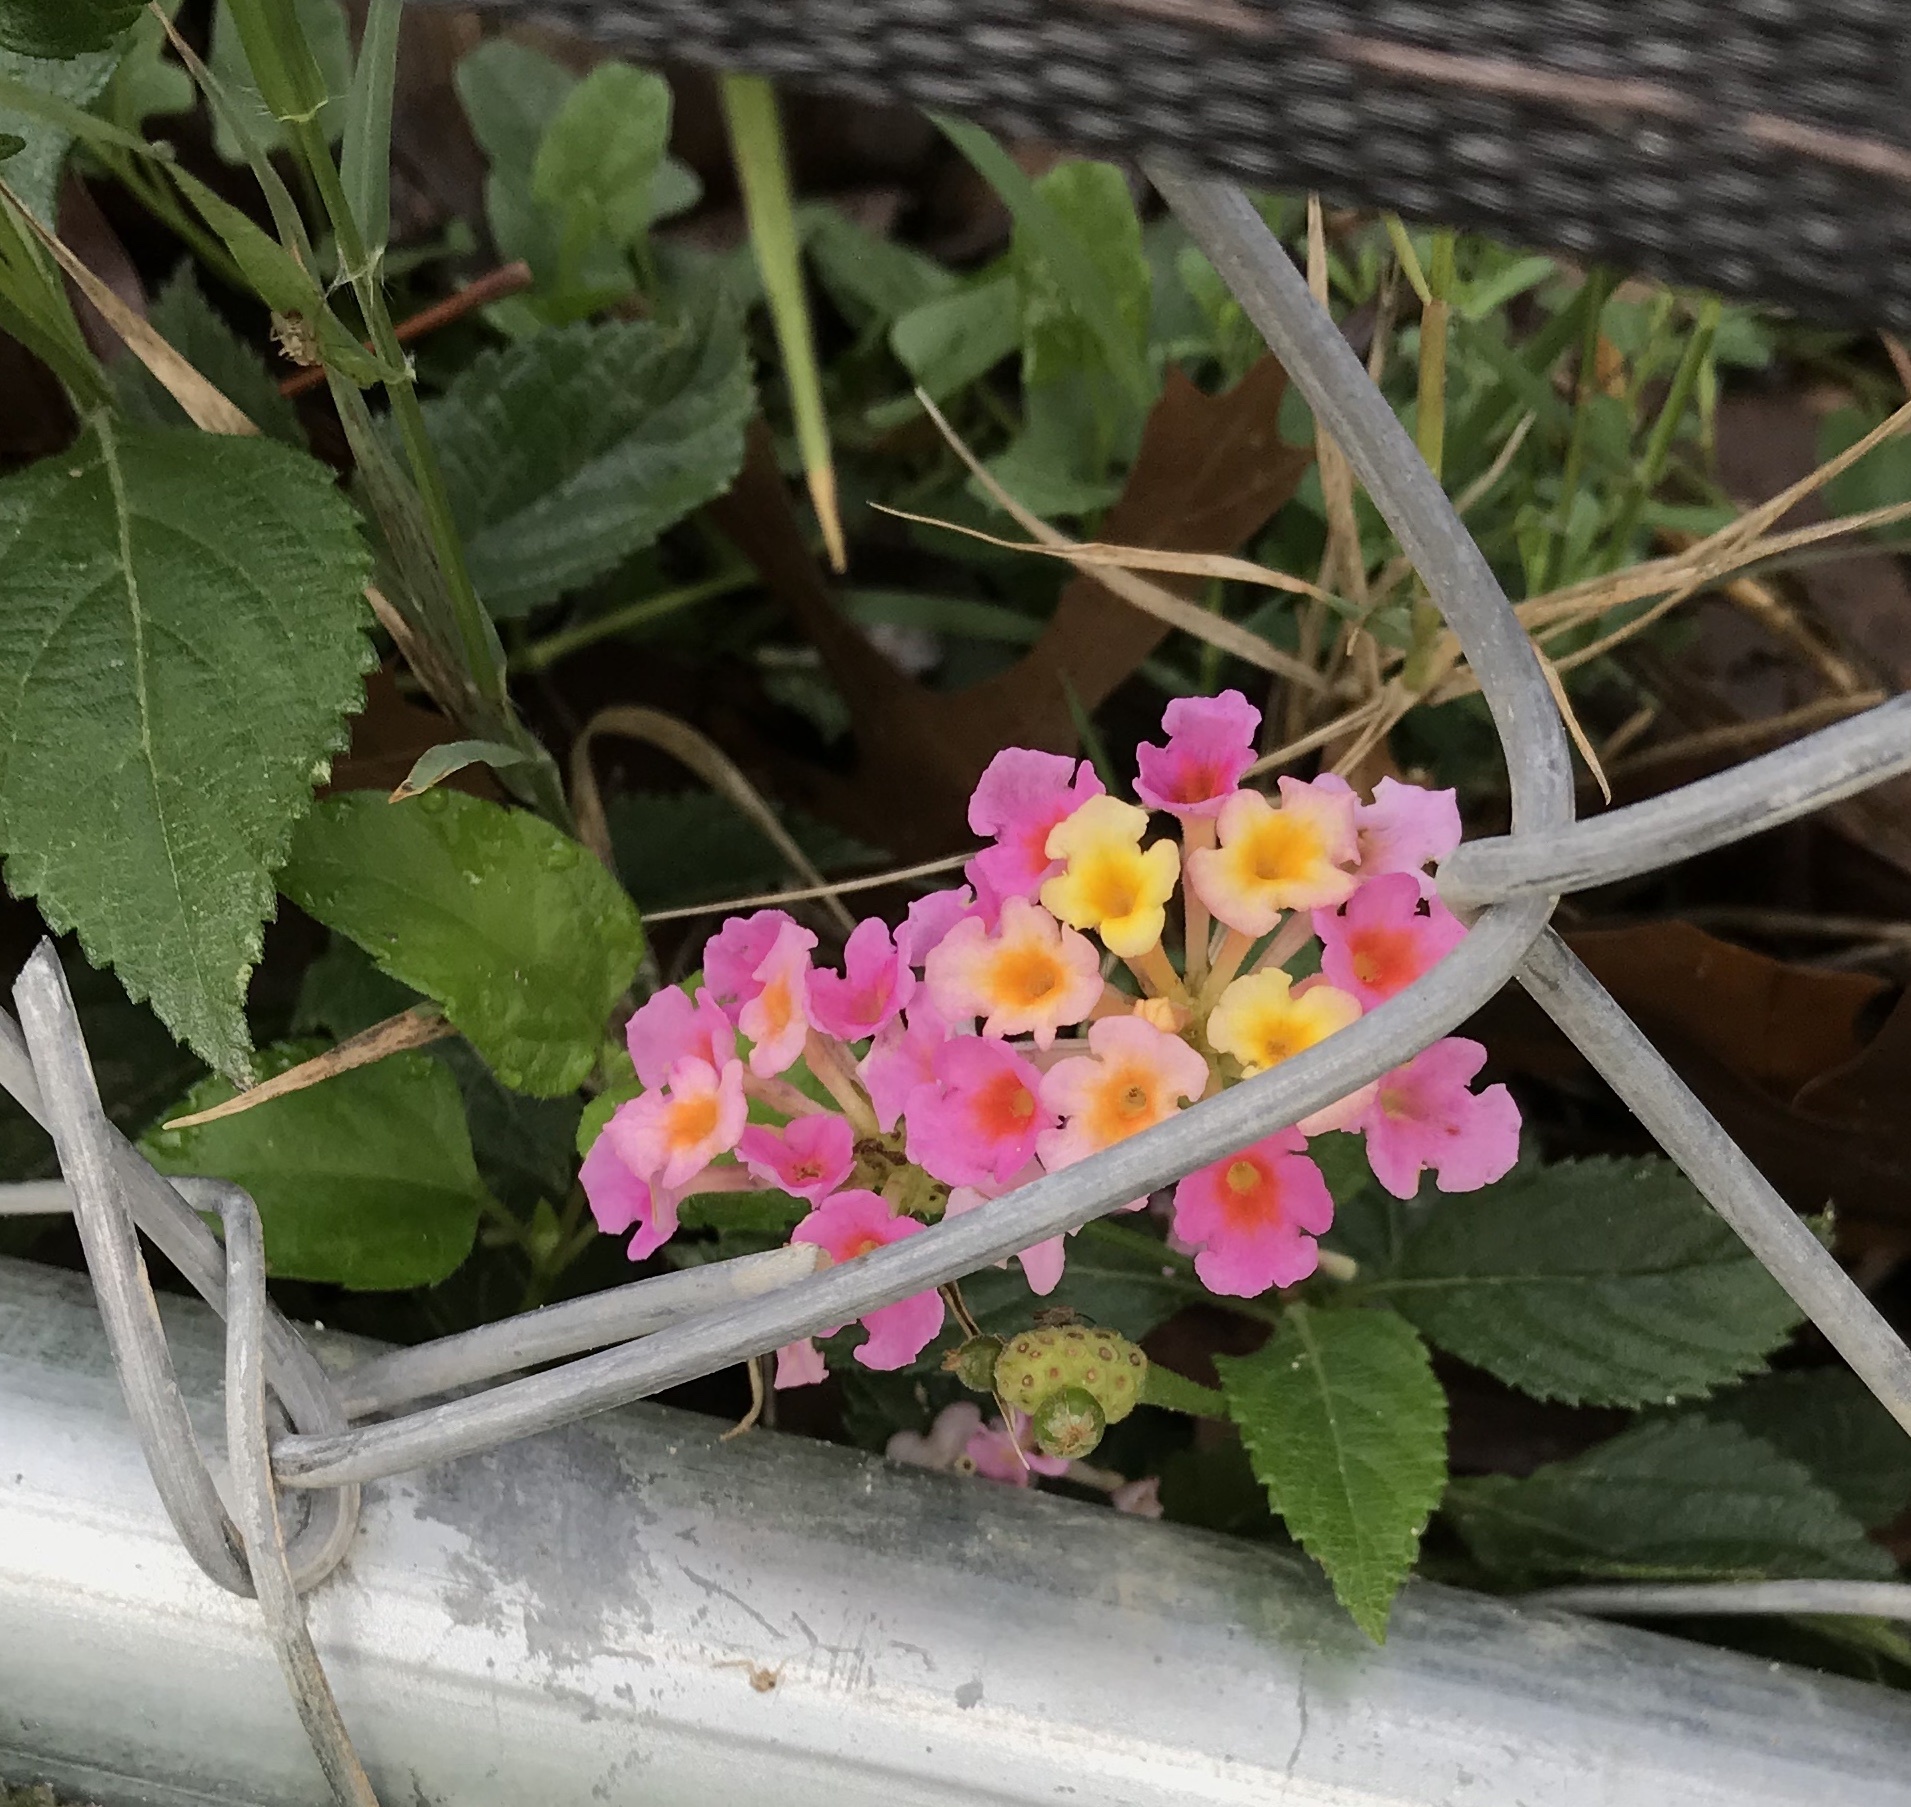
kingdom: Plantae
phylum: Tracheophyta
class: Magnoliopsida
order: Lamiales
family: Verbenaceae
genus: Lantana
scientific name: Lantana strigocamara
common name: Lantana
